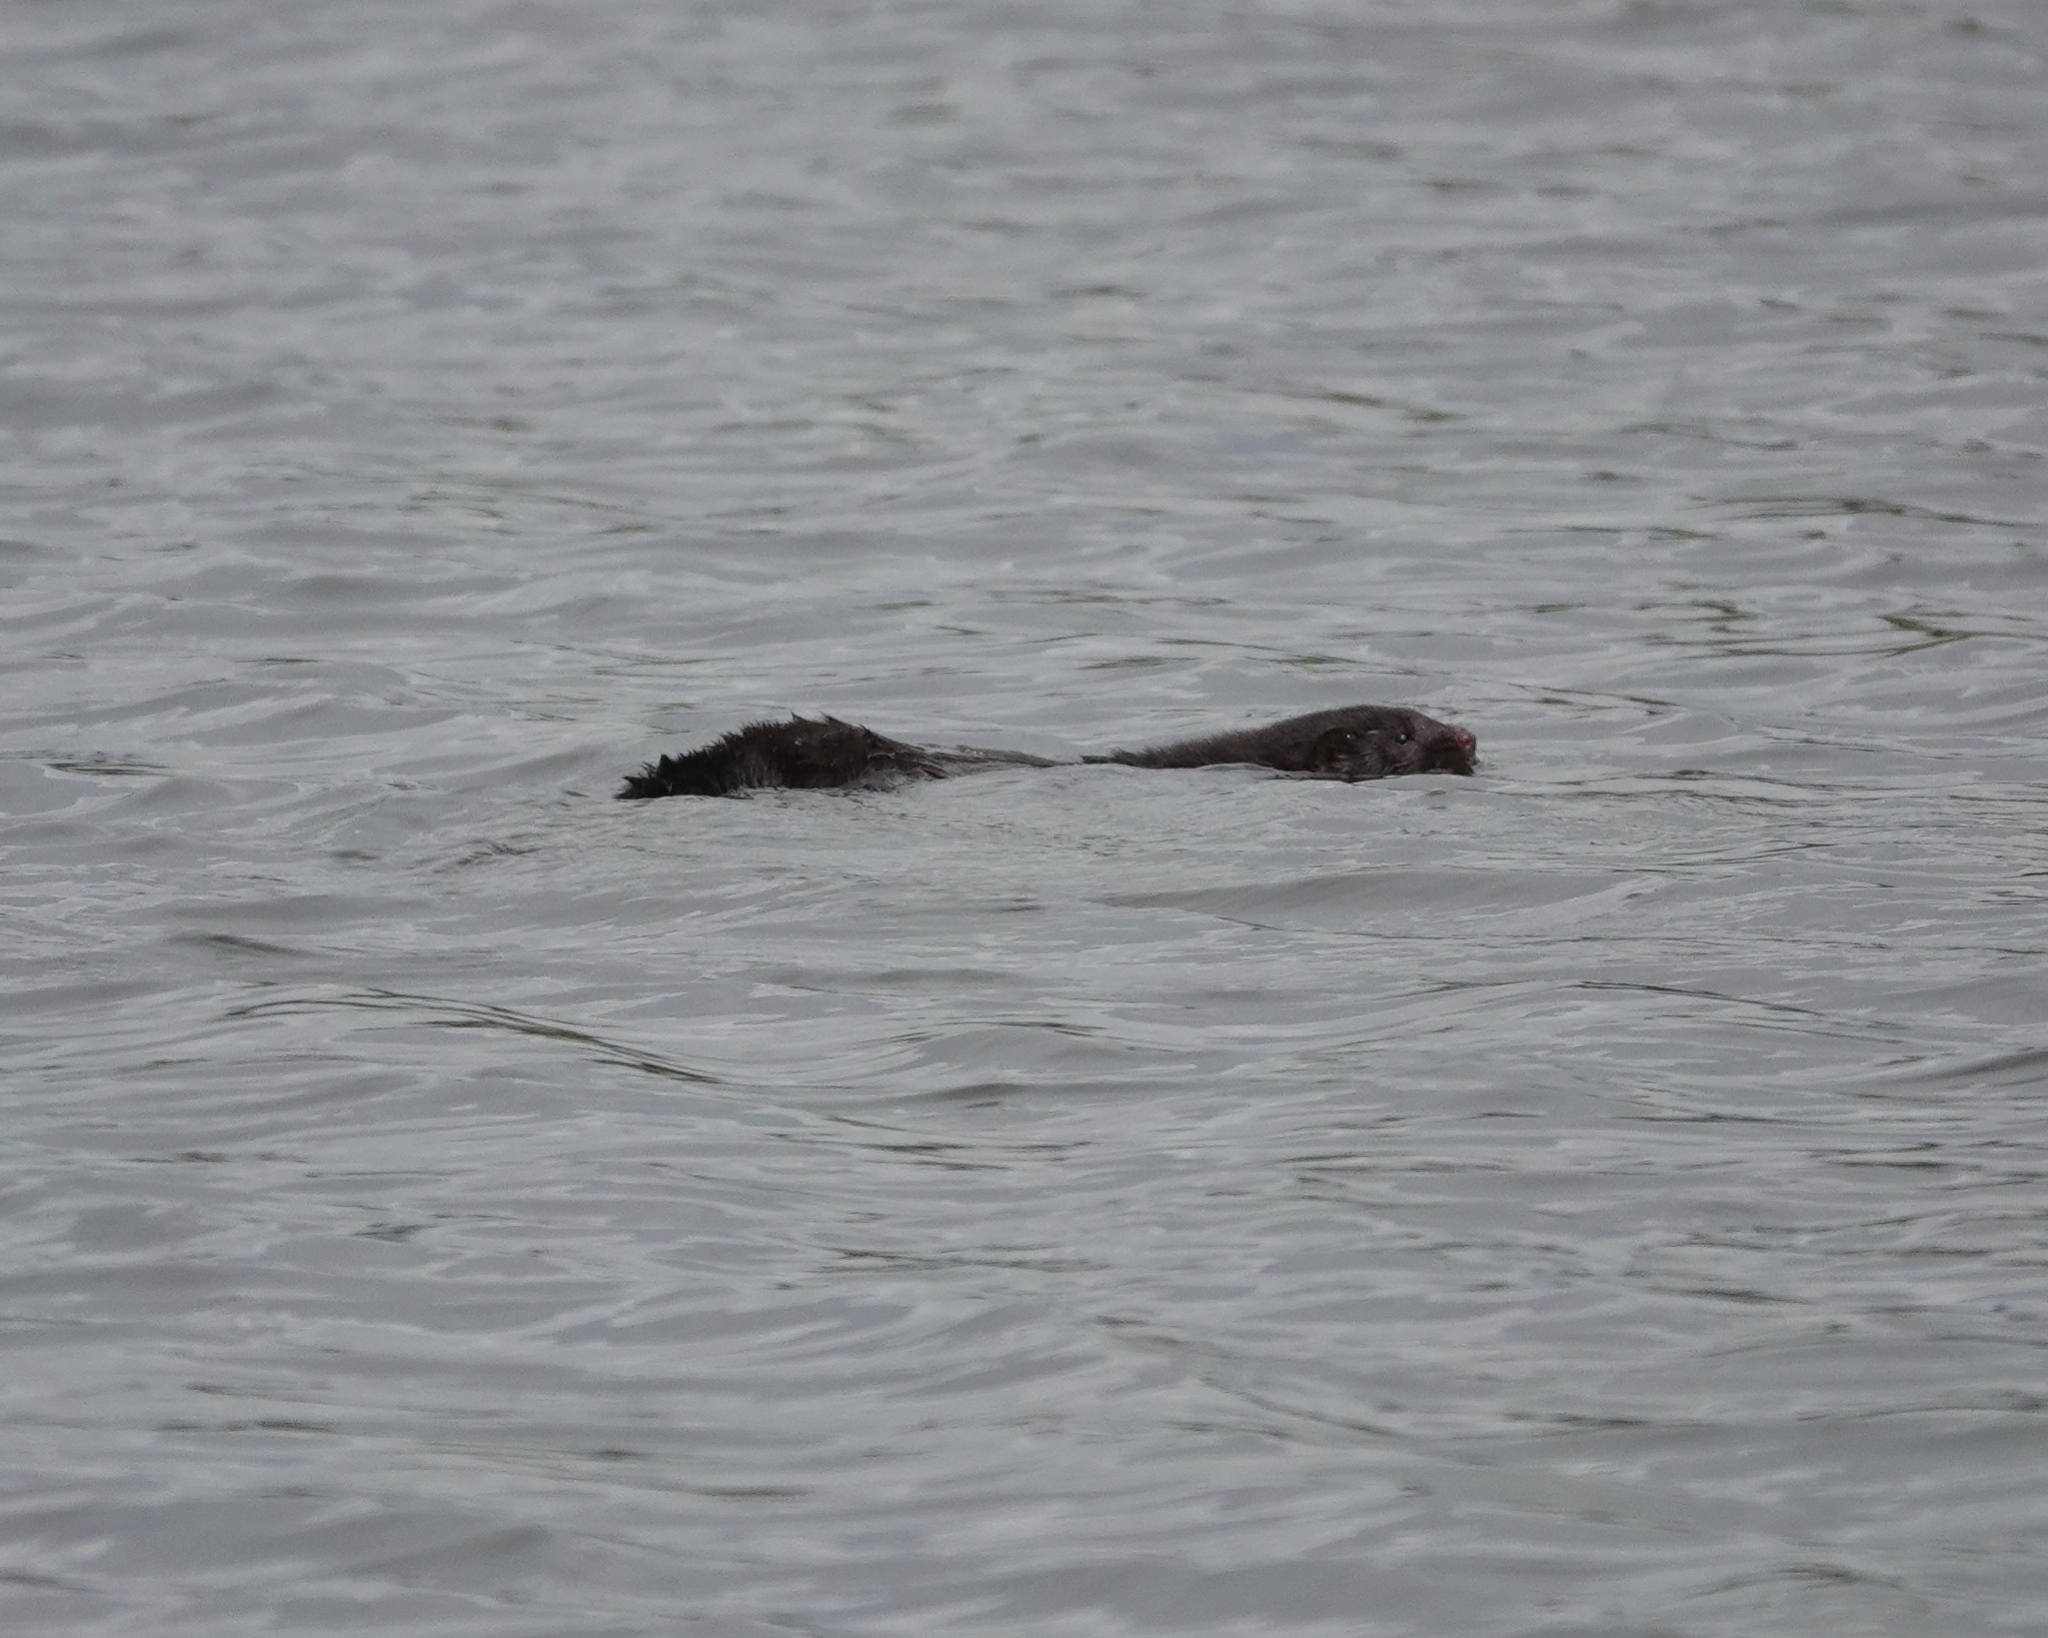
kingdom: Animalia
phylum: Chordata
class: Mammalia
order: Carnivora
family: Mustelidae
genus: Mustela
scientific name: Mustela
